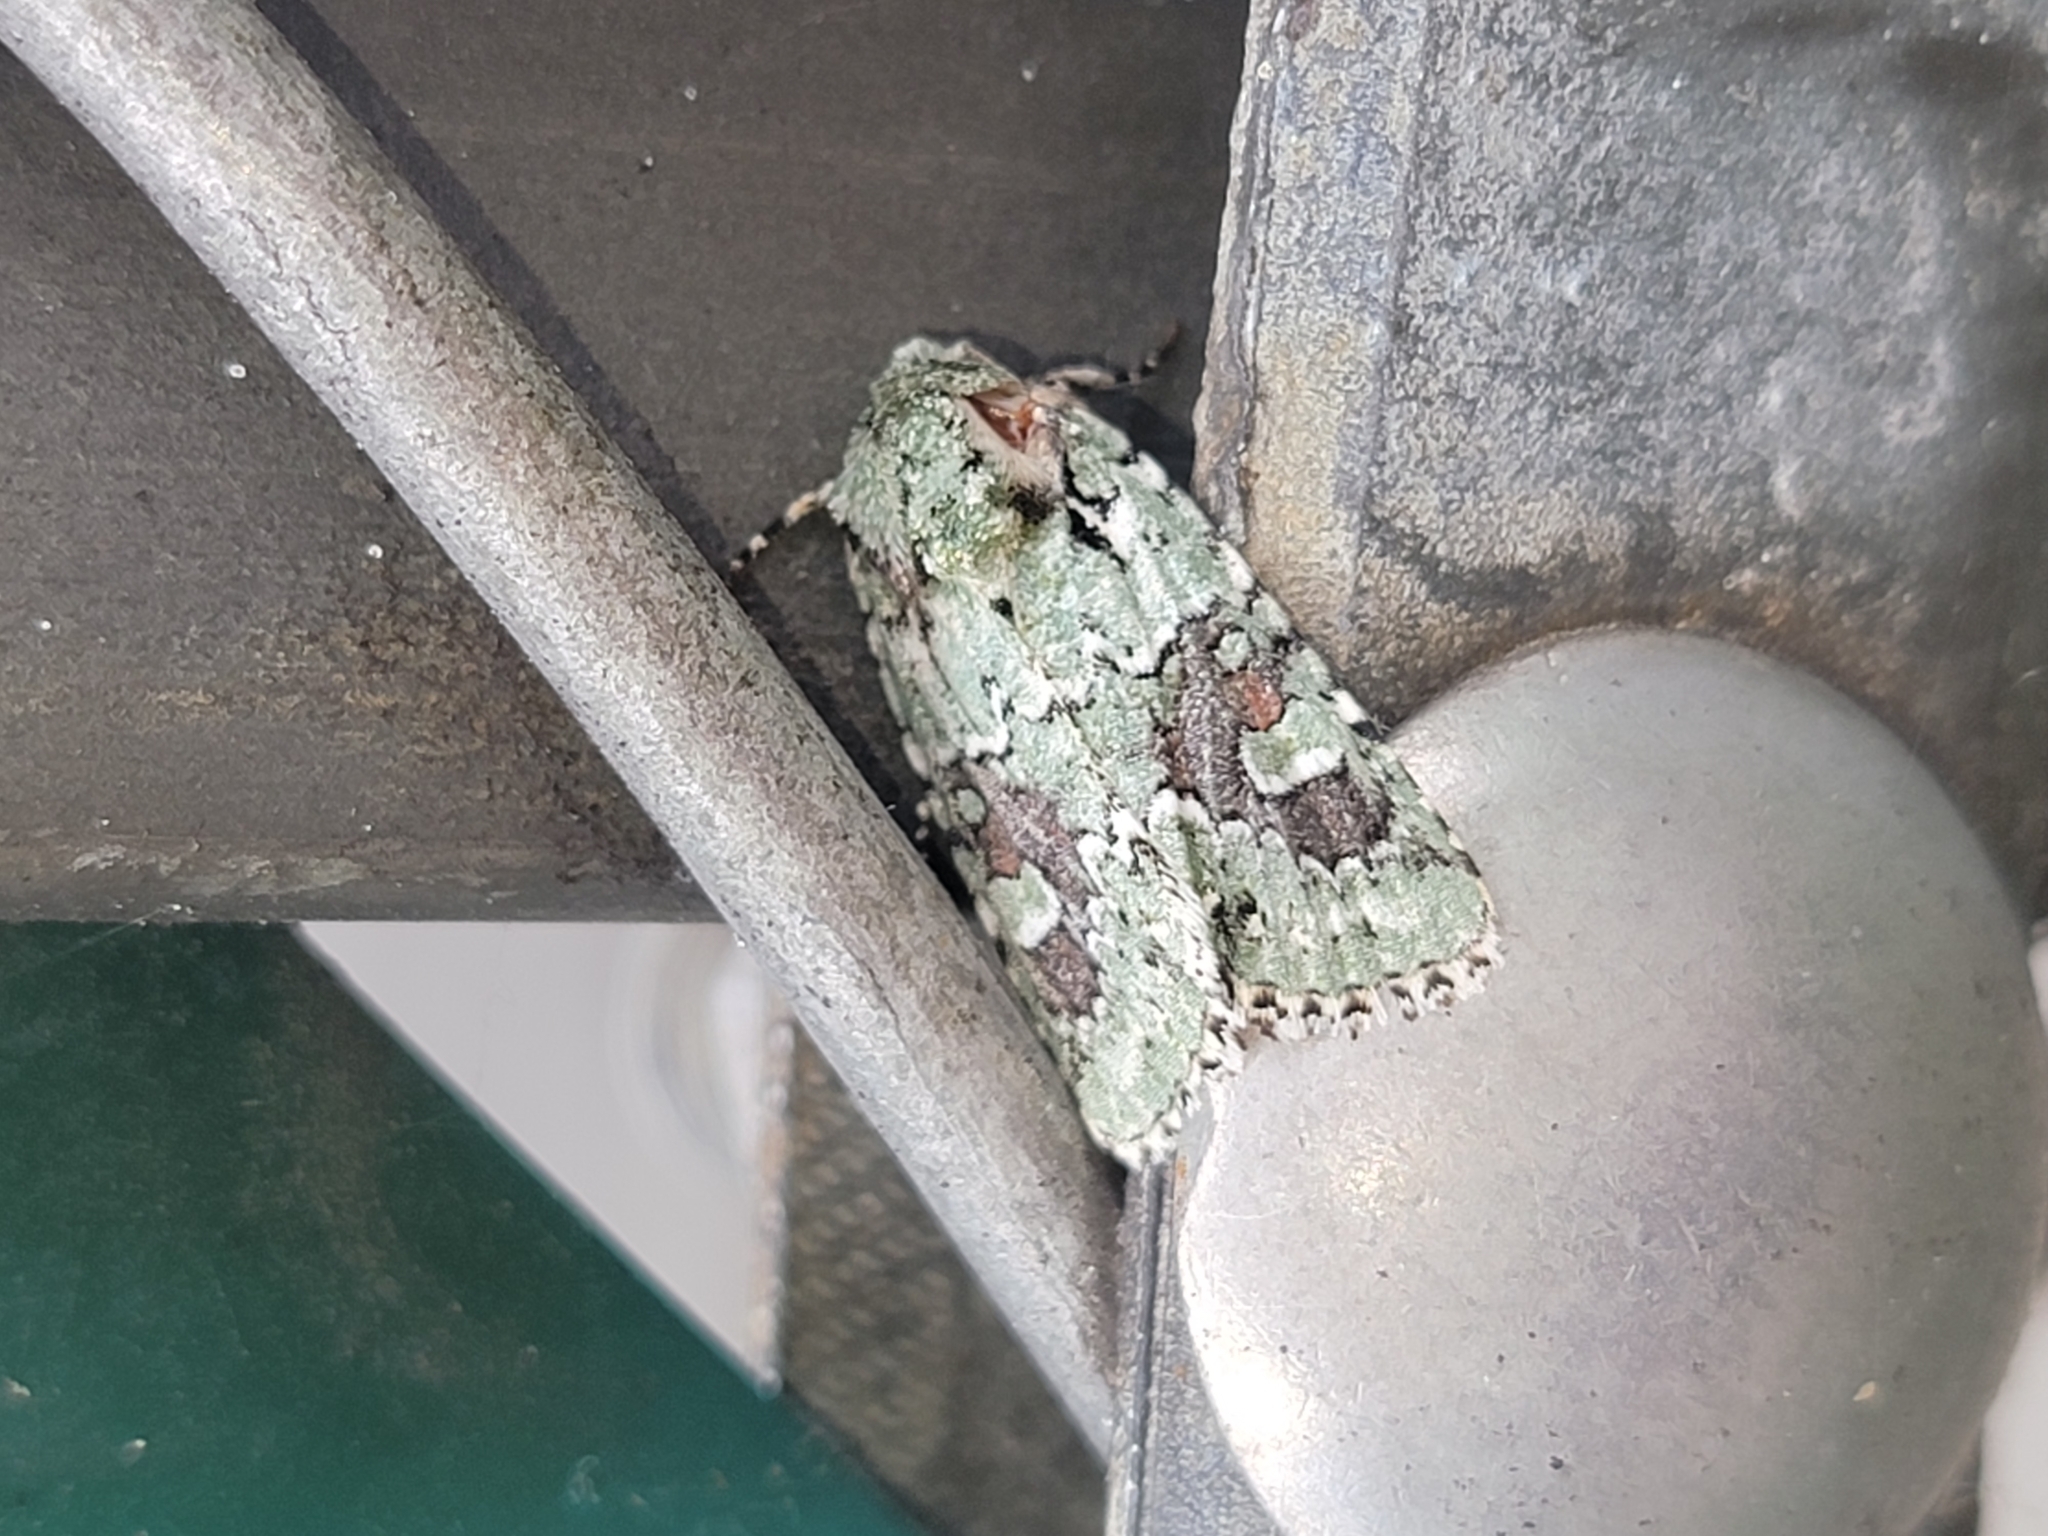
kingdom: Animalia
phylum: Arthropoda
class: Insecta
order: Lepidoptera
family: Noctuidae
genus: Lacinipolia
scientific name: Lacinipolia laudabilis
